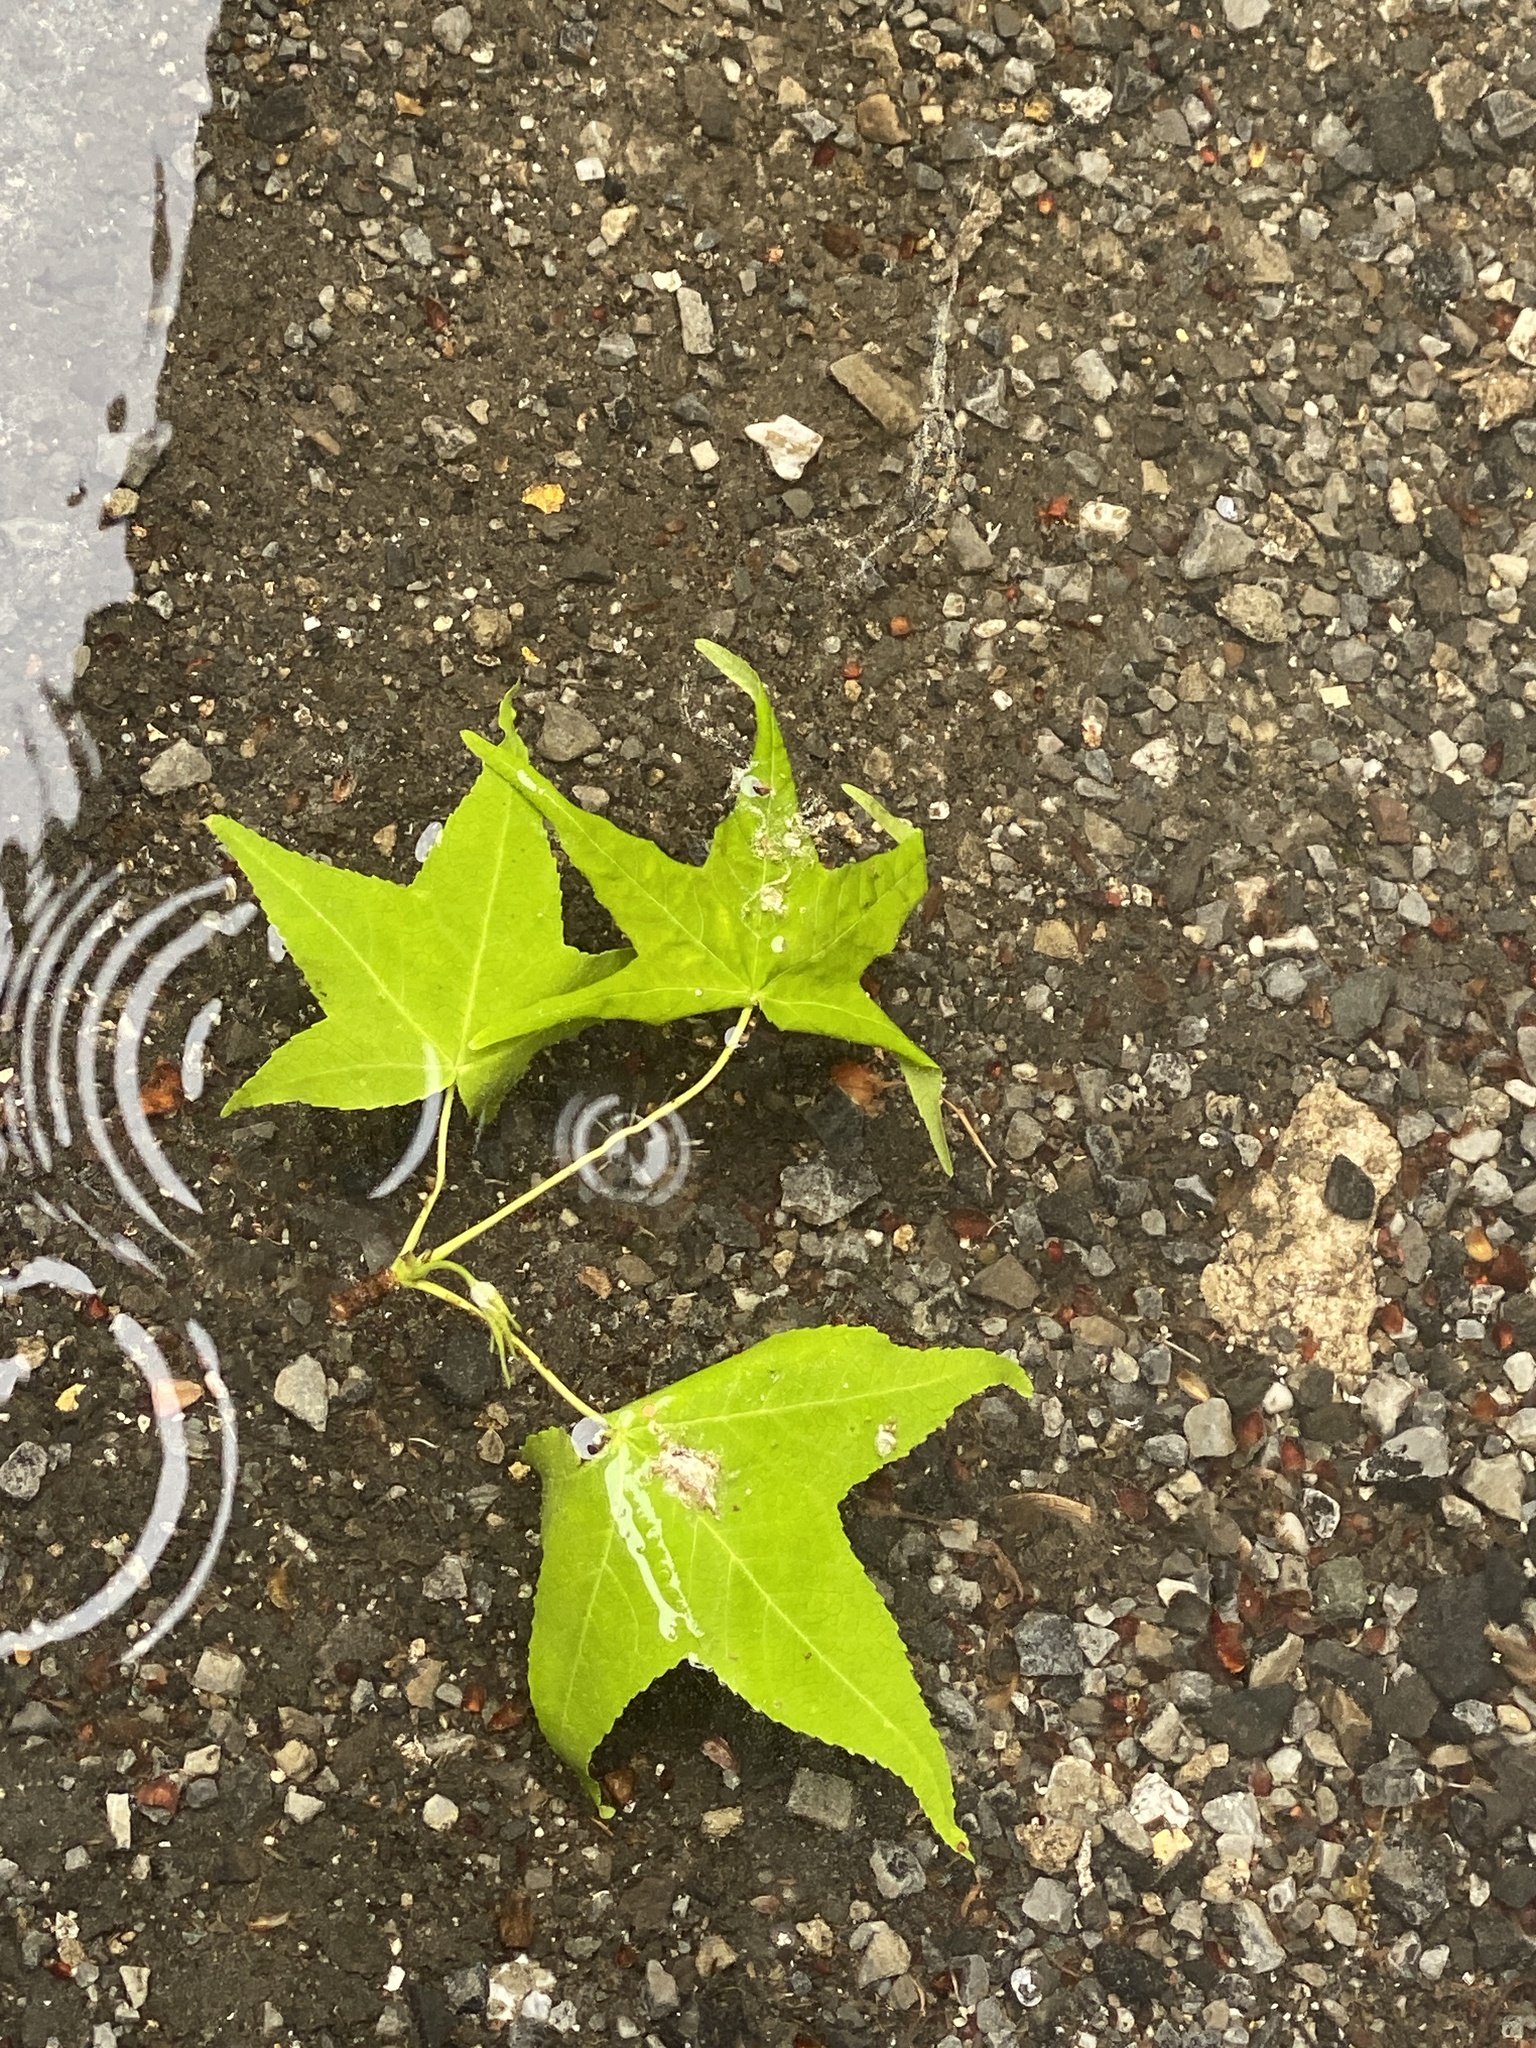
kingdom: Plantae
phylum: Tracheophyta
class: Magnoliopsida
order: Saxifragales
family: Altingiaceae
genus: Liquidambar
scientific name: Liquidambar styraciflua
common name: Sweet gum
